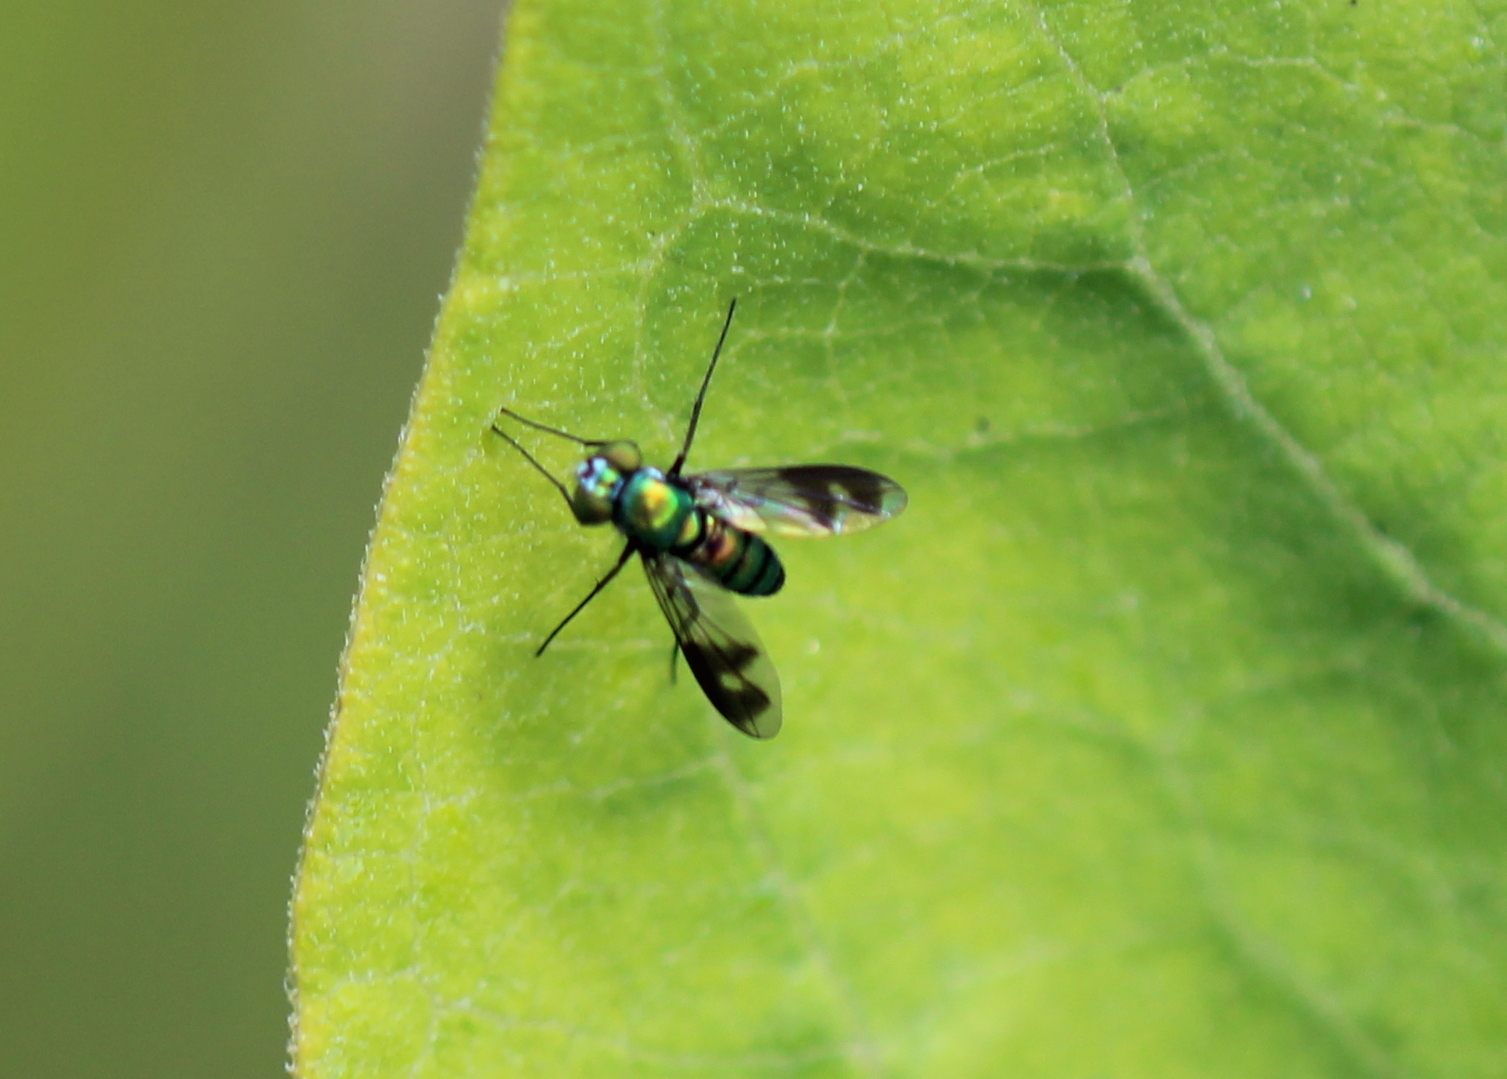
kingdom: Animalia
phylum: Arthropoda
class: Insecta
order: Diptera
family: Dolichopodidae
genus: Condylostylus
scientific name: Condylostylus patibulatus
